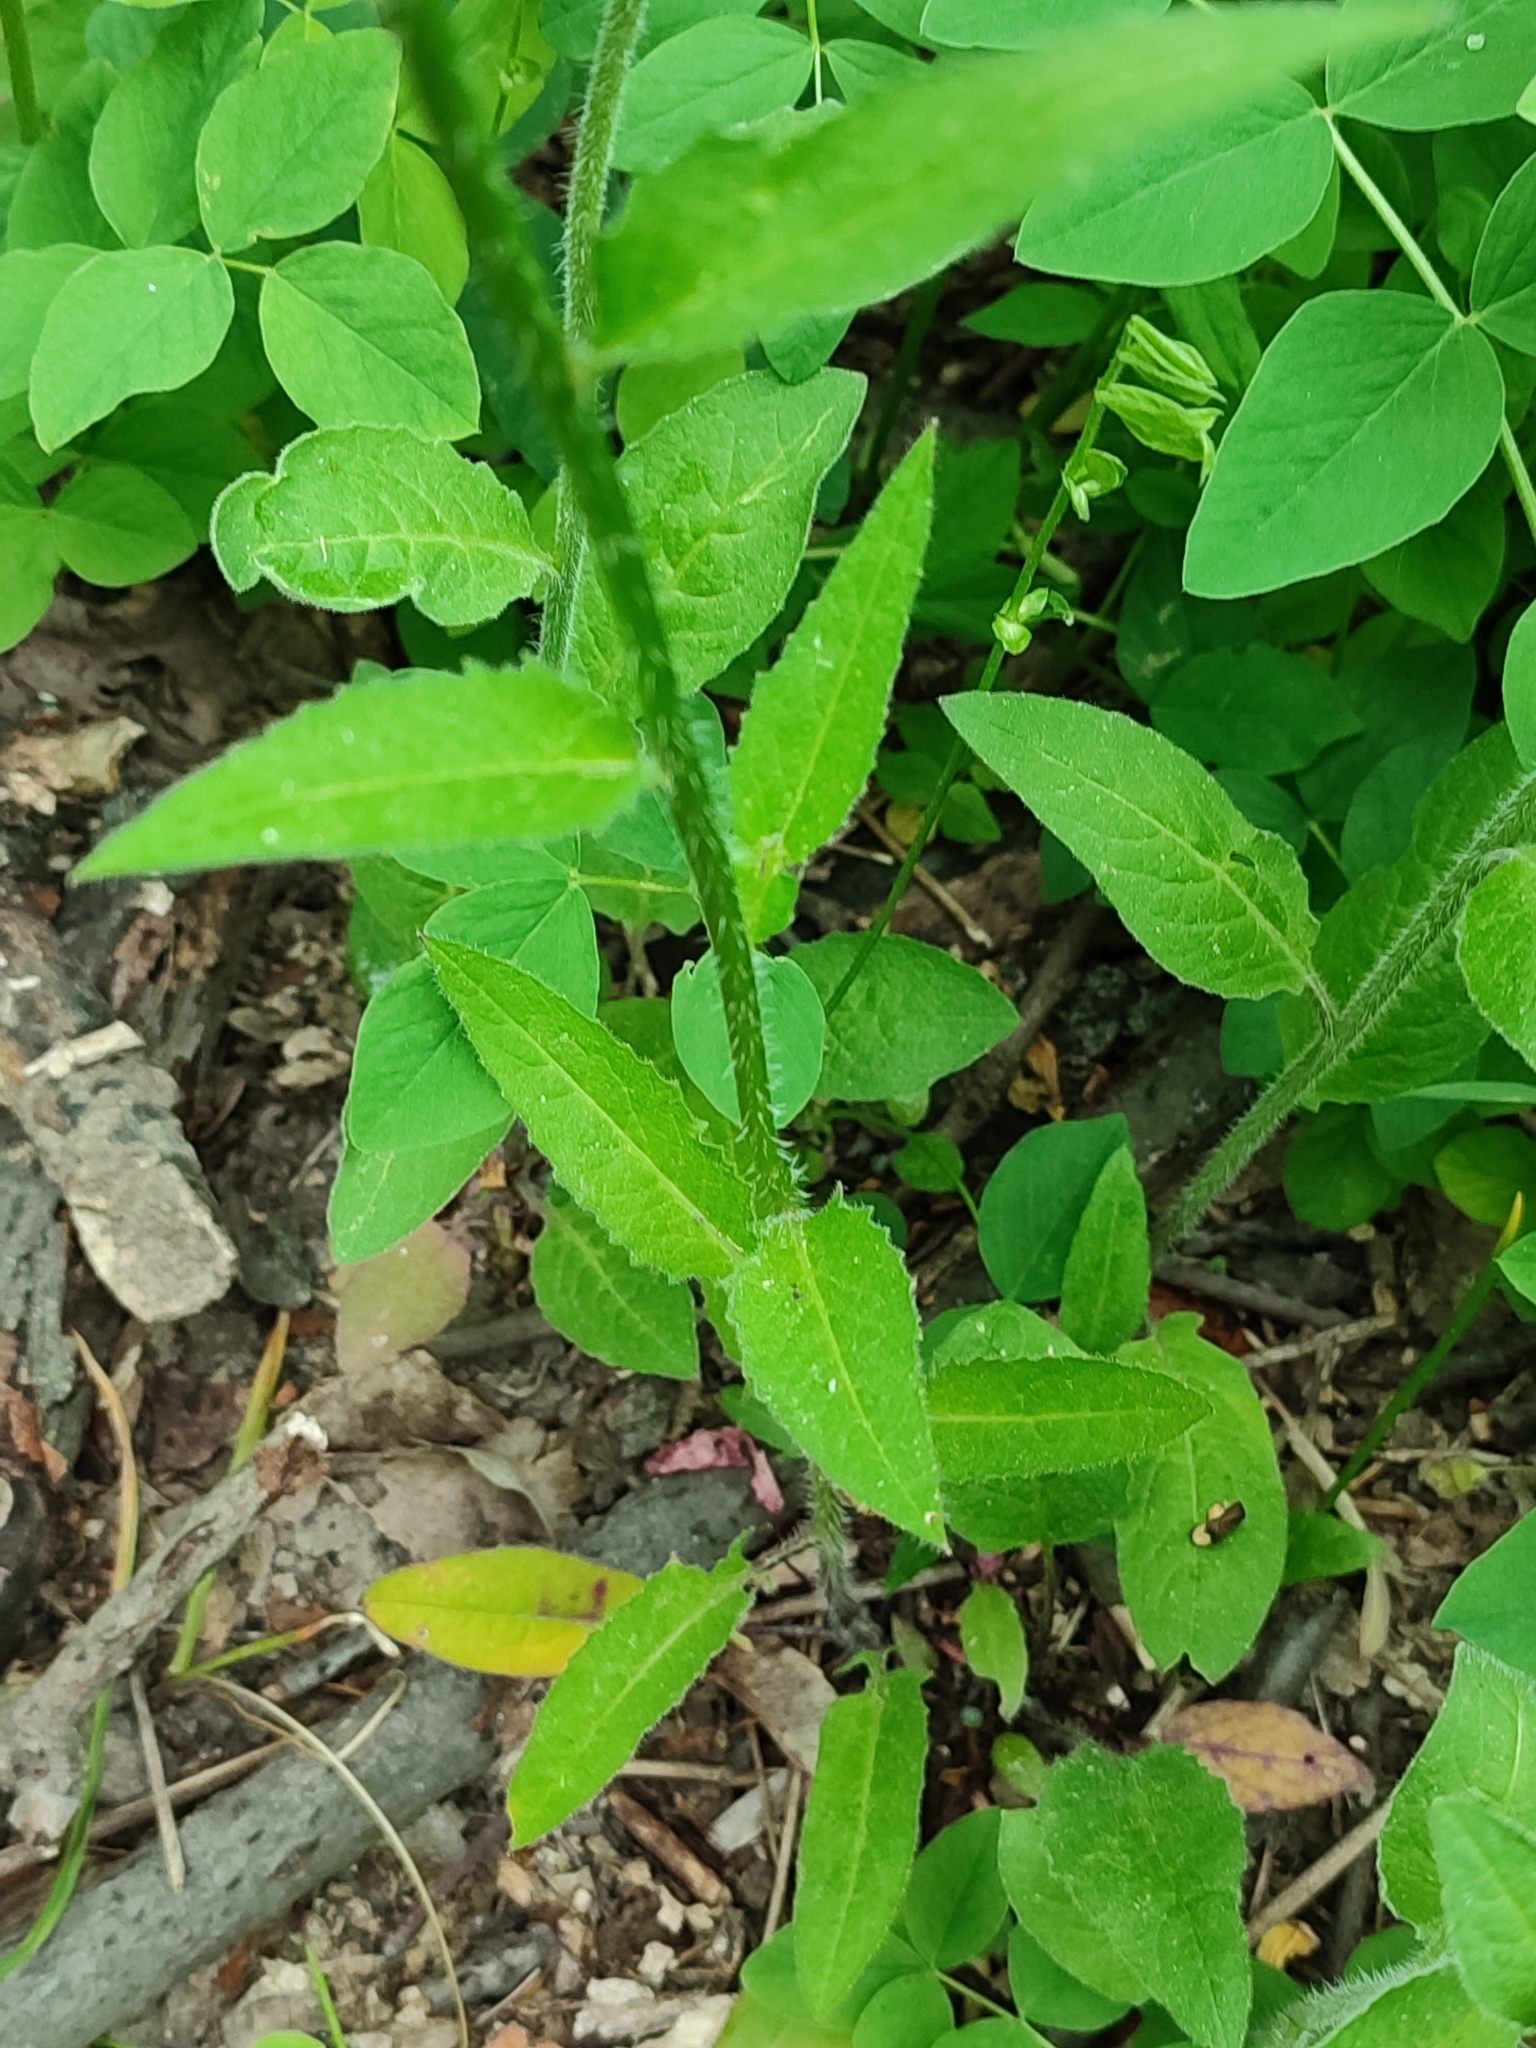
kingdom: Plantae
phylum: Tracheophyta
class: Magnoliopsida
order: Brassicales
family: Brassicaceae
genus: Hesperis
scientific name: Hesperis matronalis
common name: Dame's-violet
